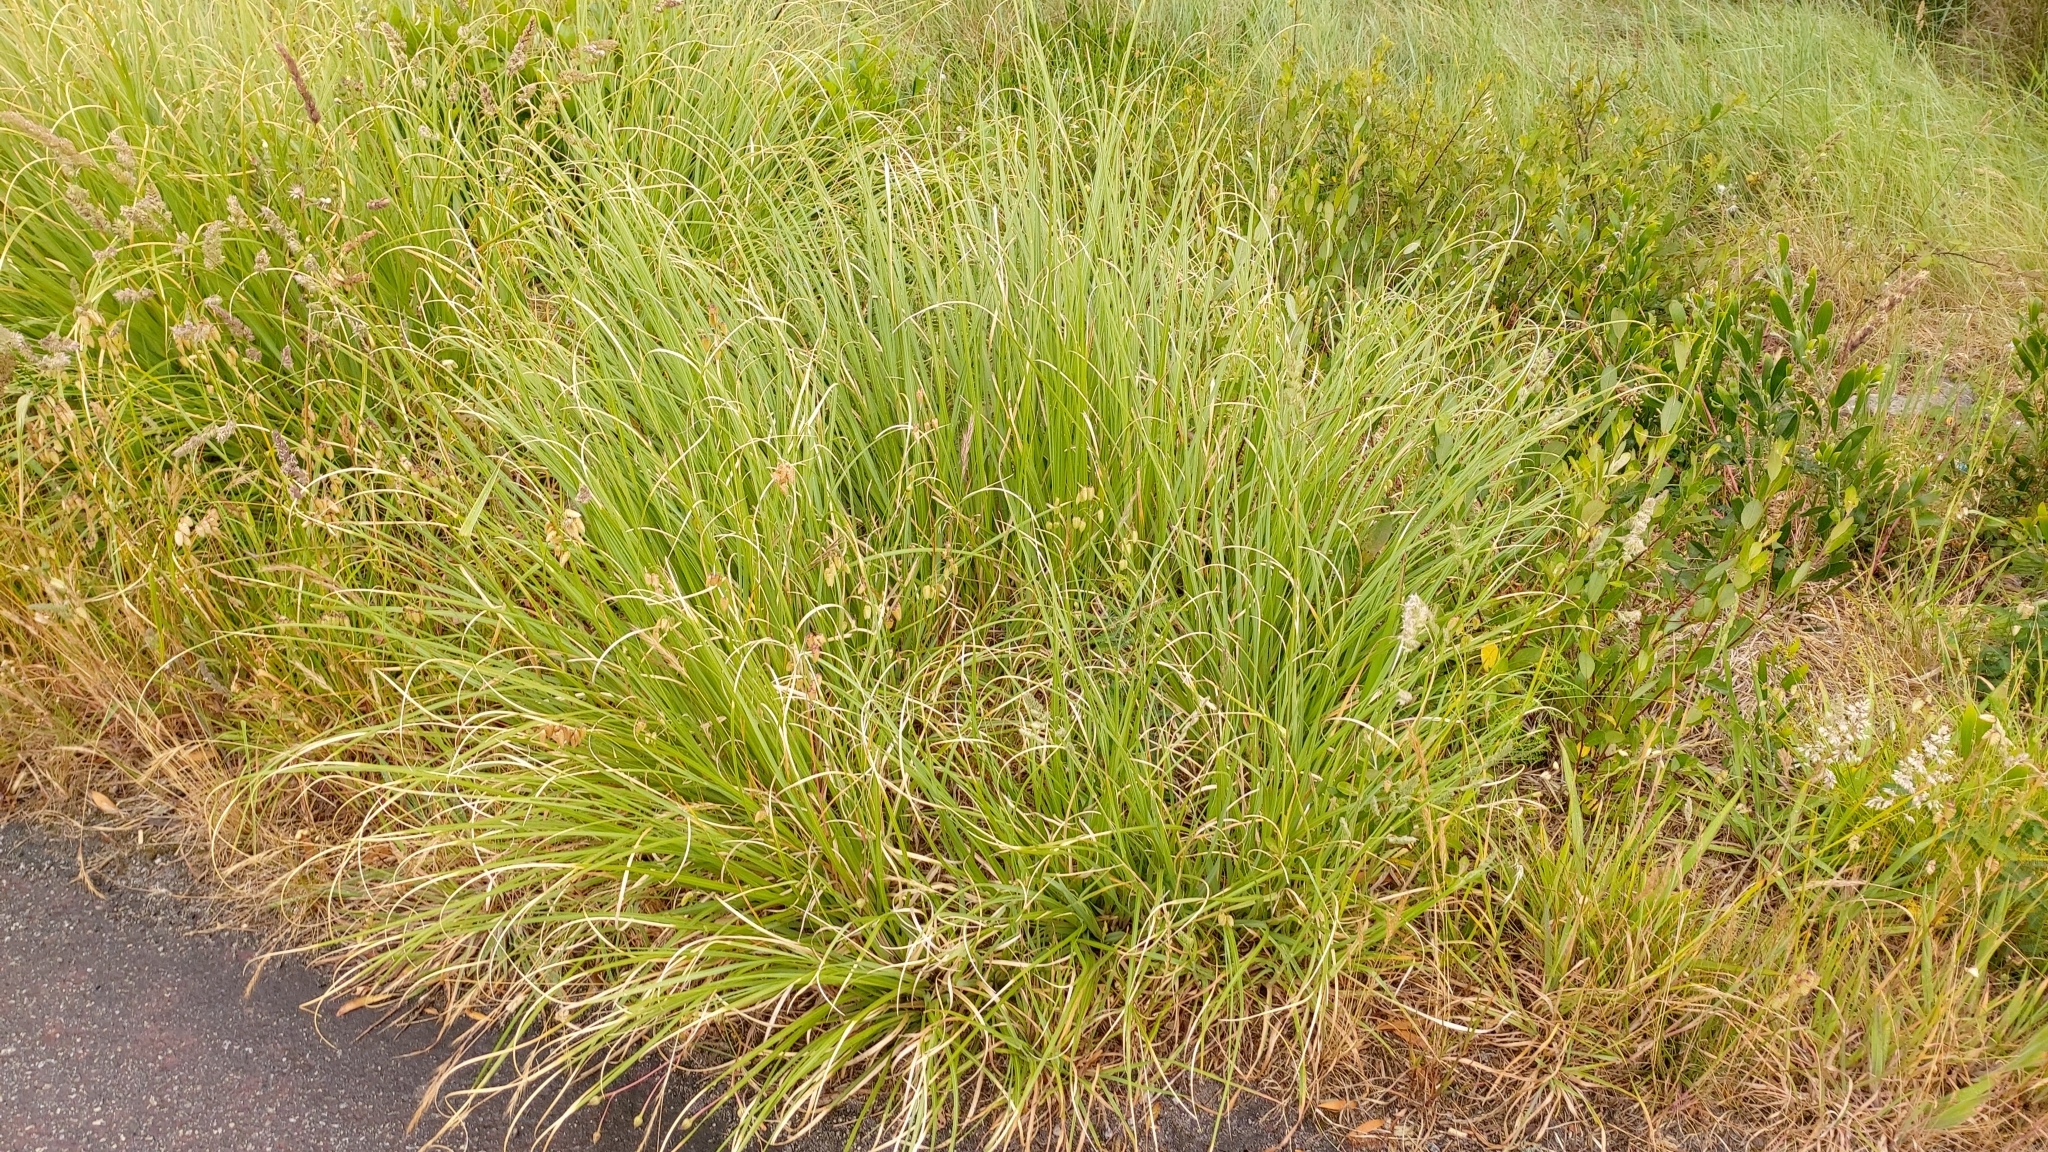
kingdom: Plantae
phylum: Tracheophyta
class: Liliopsida
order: Poales
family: Poaceae
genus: Cortaderia
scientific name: Cortaderia selloana
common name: Uruguayan pampas grass
